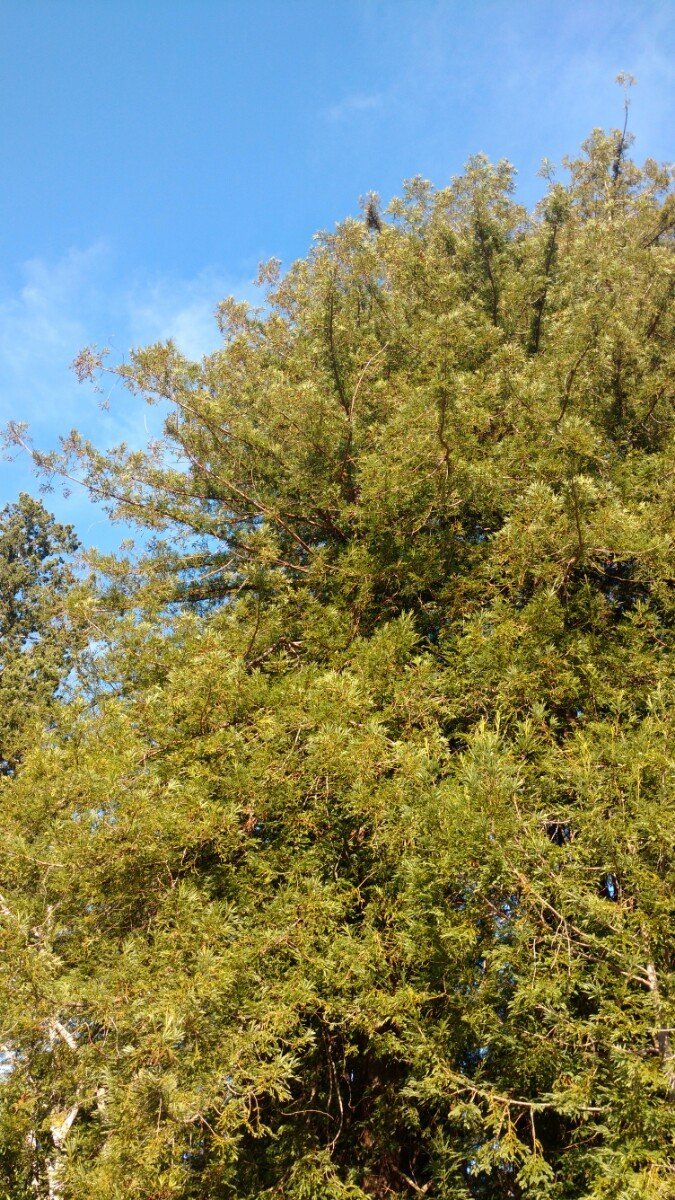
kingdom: Plantae
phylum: Tracheophyta
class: Pinopsida
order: Pinales
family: Cupressaceae
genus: Sequoia
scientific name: Sequoia sempervirens
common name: Coast redwood
